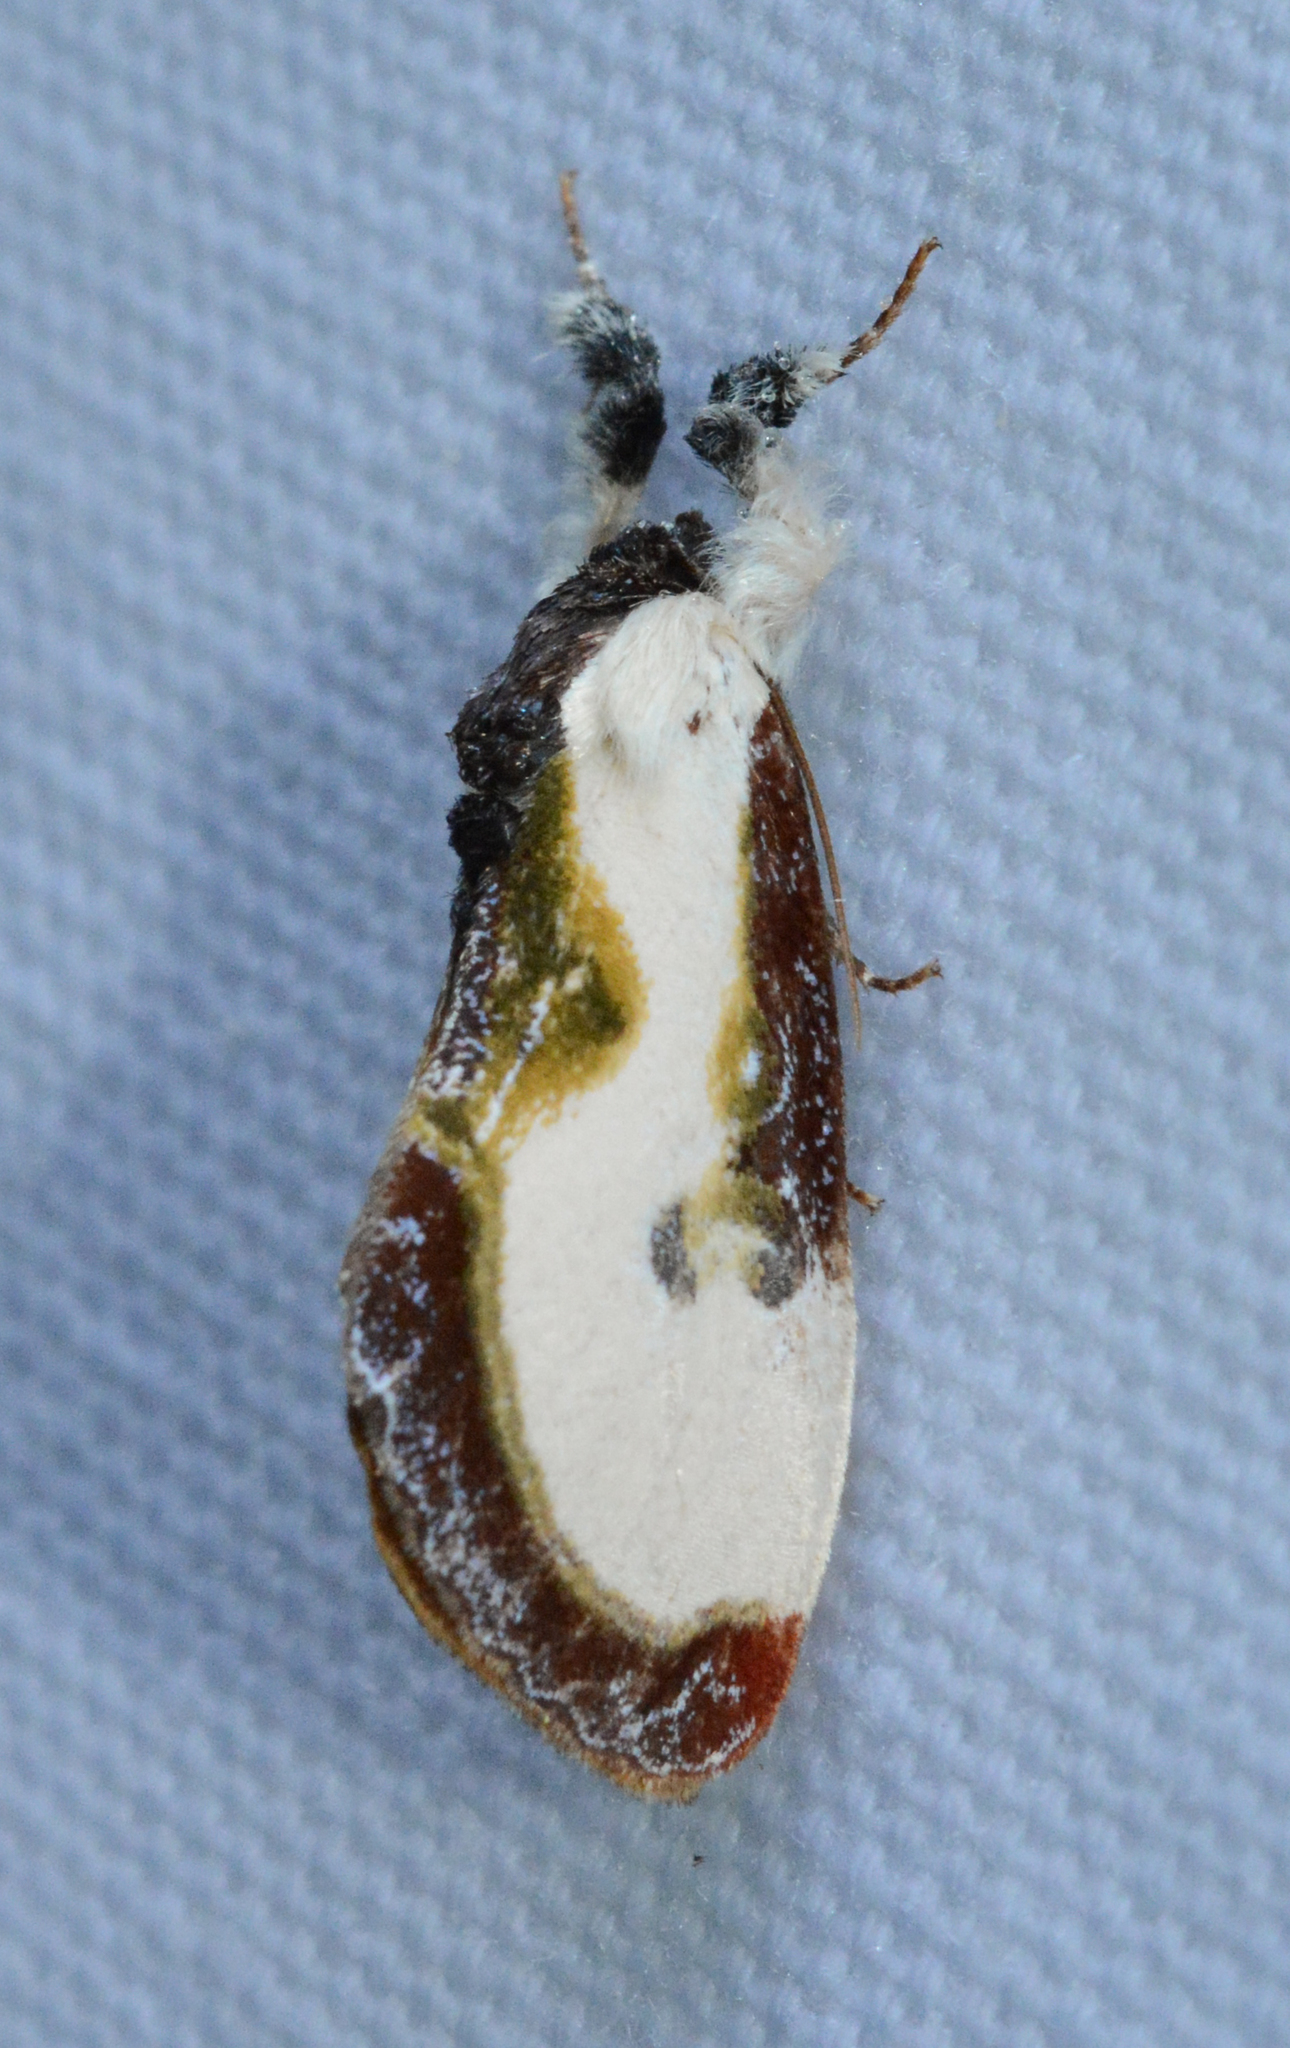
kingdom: Animalia
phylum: Arthropoda
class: Insecta
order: Lepidoptera
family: Noctuidae
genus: Eudryas
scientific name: Eudryas grata
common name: Beautiful wood-nymph
